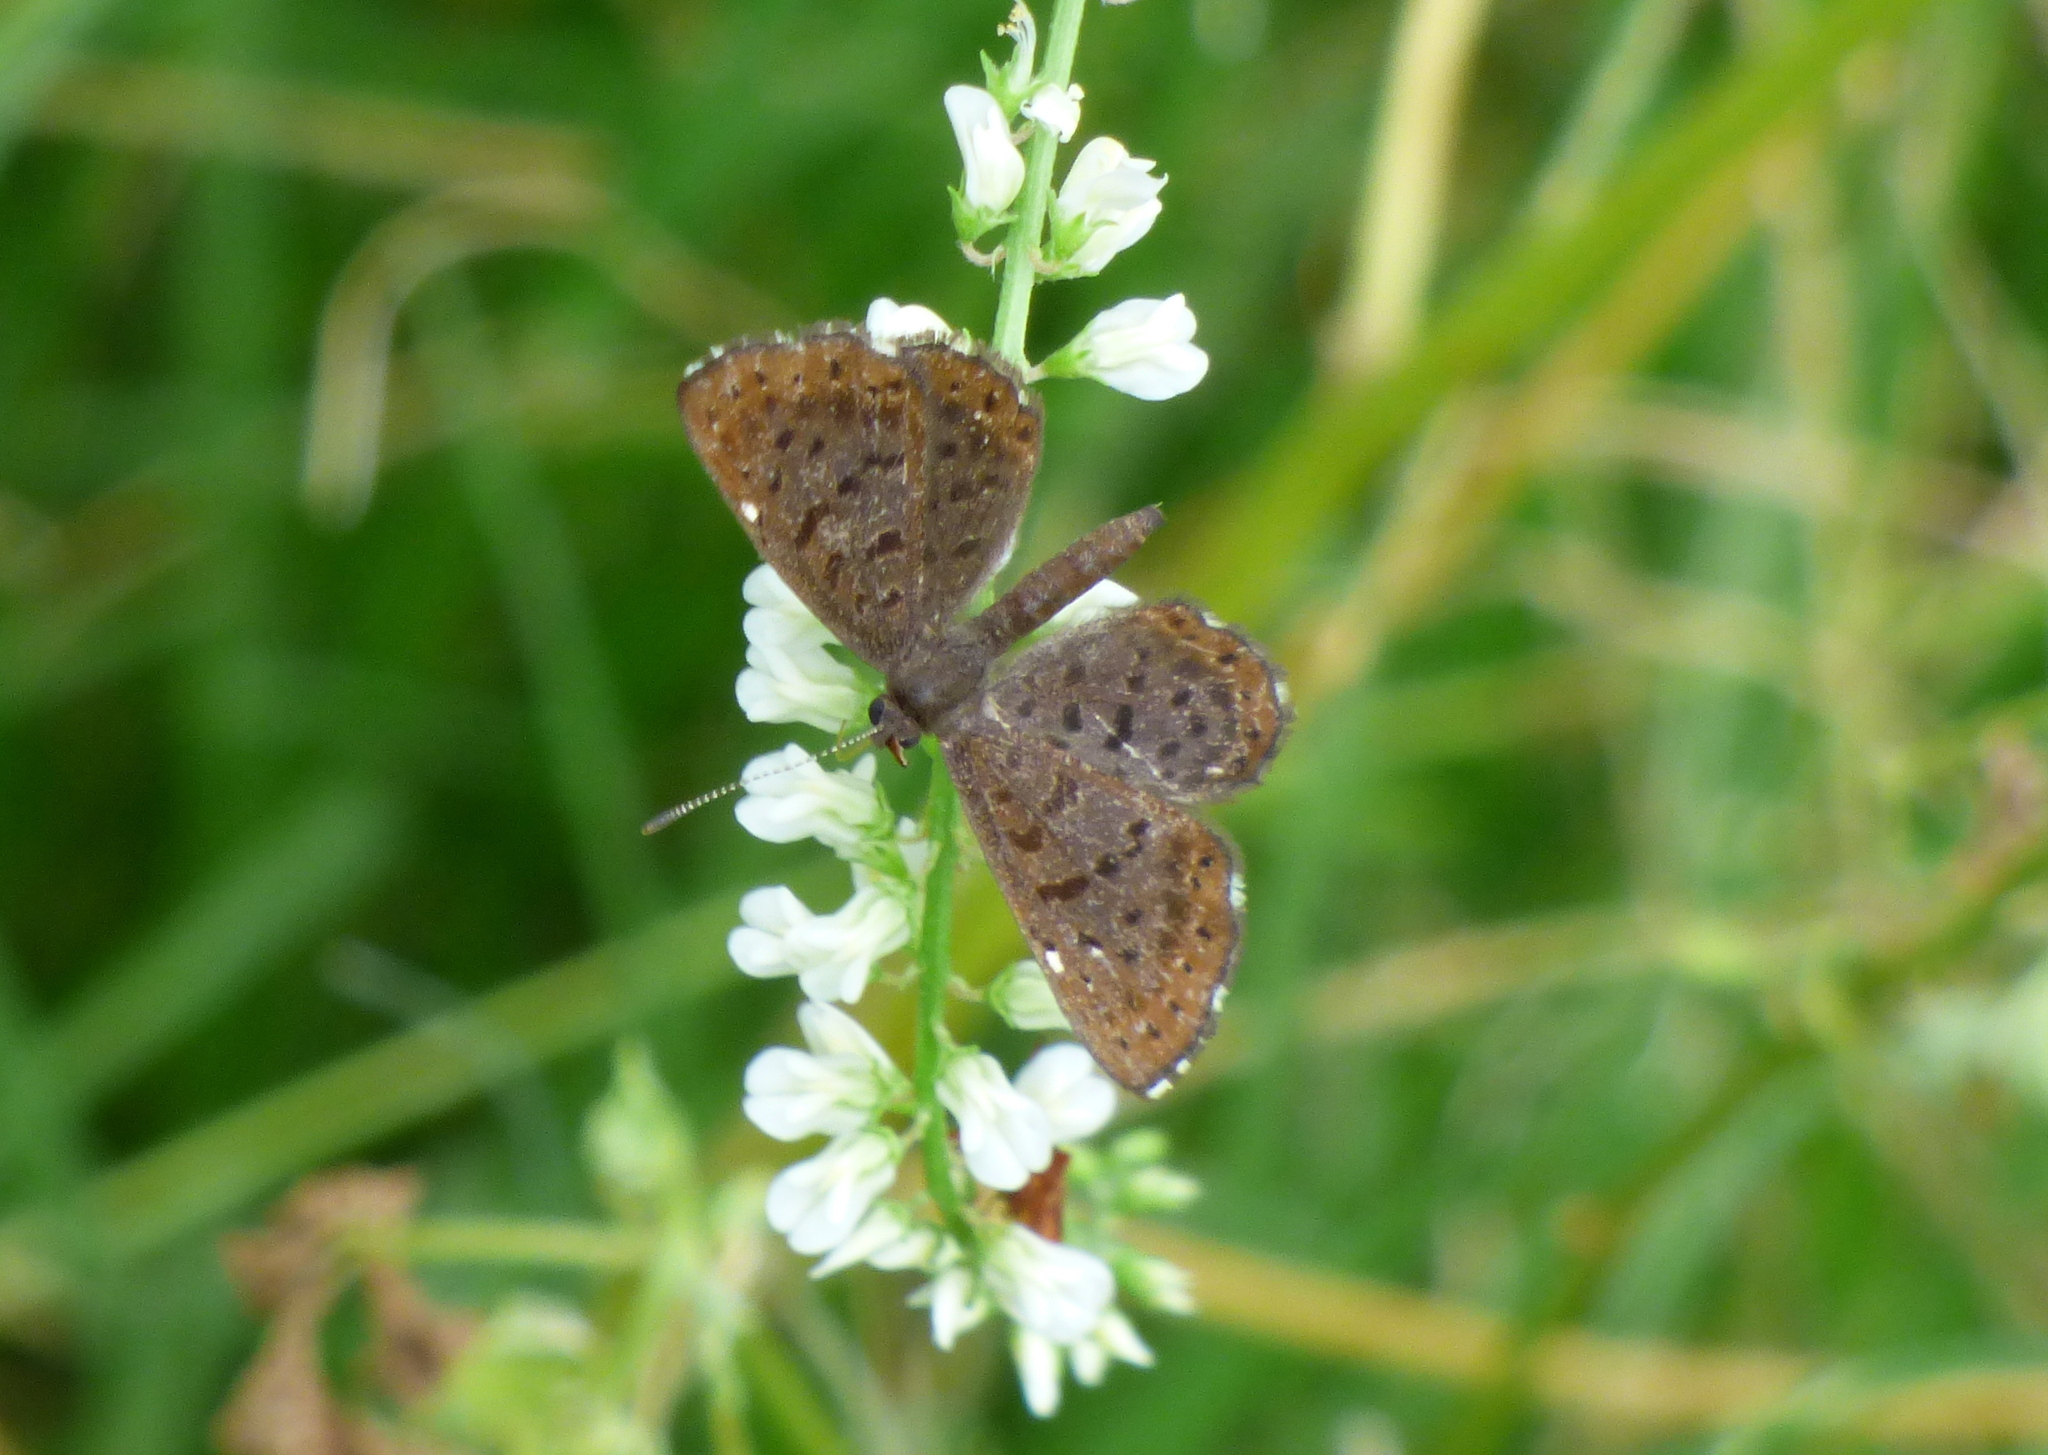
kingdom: Animalia
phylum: Arthropoda
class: Insecta
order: Lepidoptera
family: Riodinidae
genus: Teenie
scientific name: Teenie tinea
